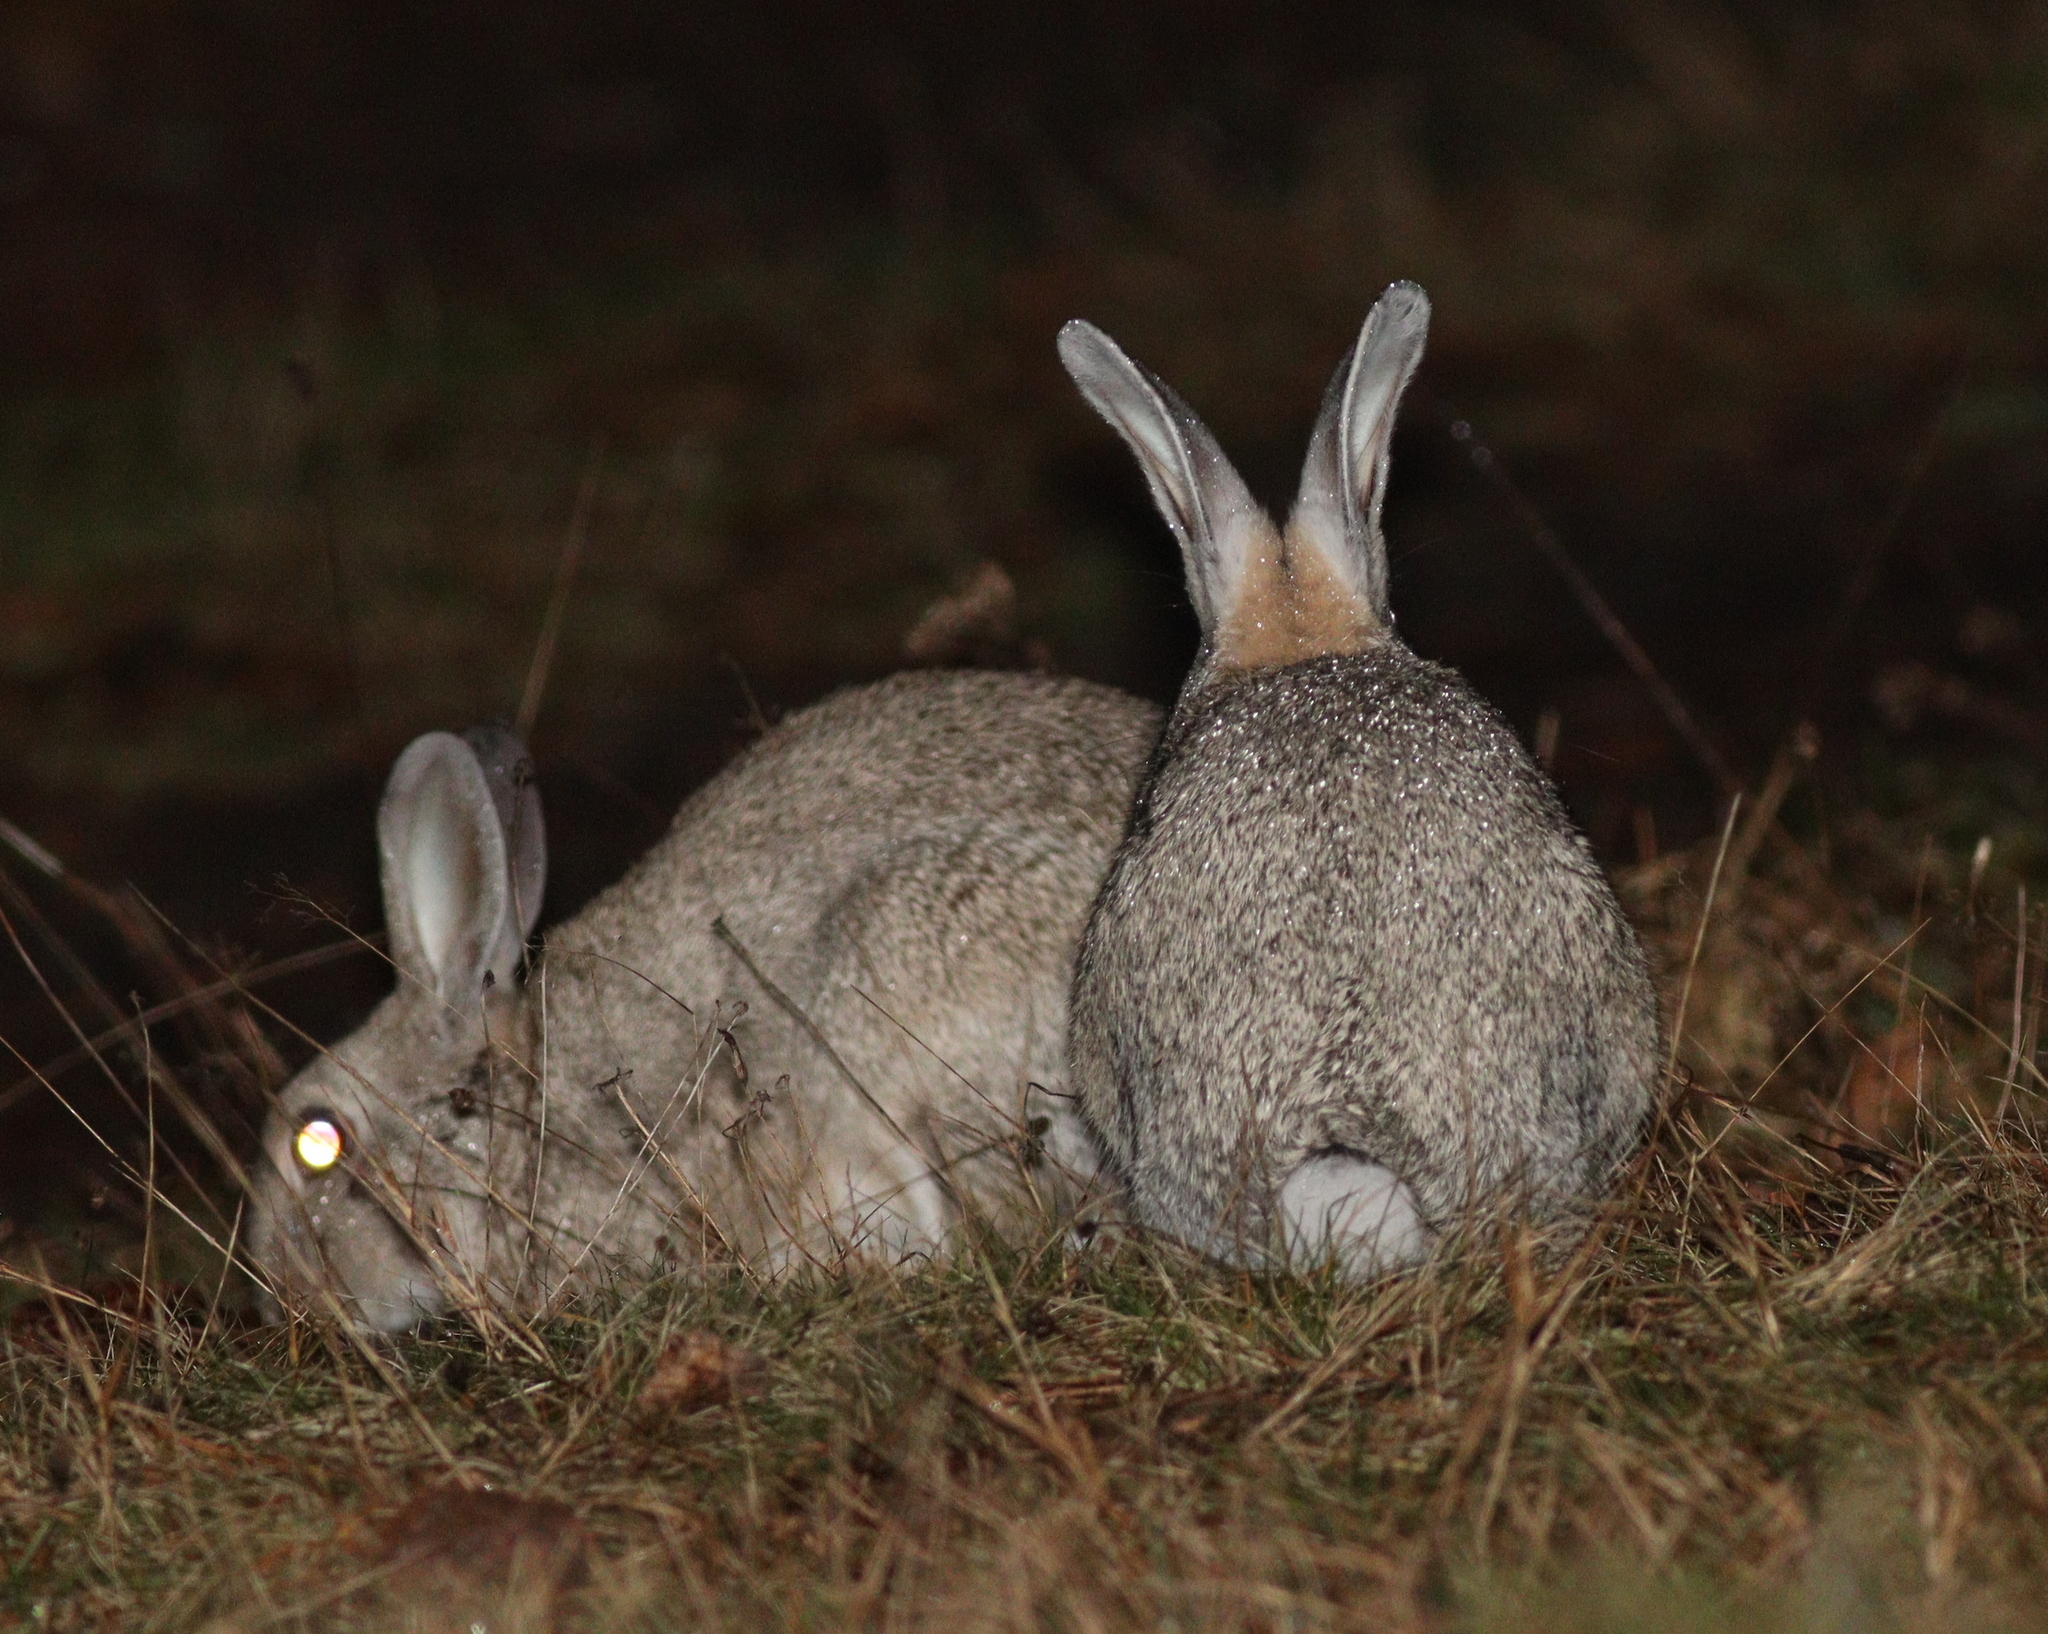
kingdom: Animalia
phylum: Chordata
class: Mammalia
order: Lagomorpha
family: Leporidae
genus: Oryctolagus
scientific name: Oryctolagus cuniculus
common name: European rabbit
